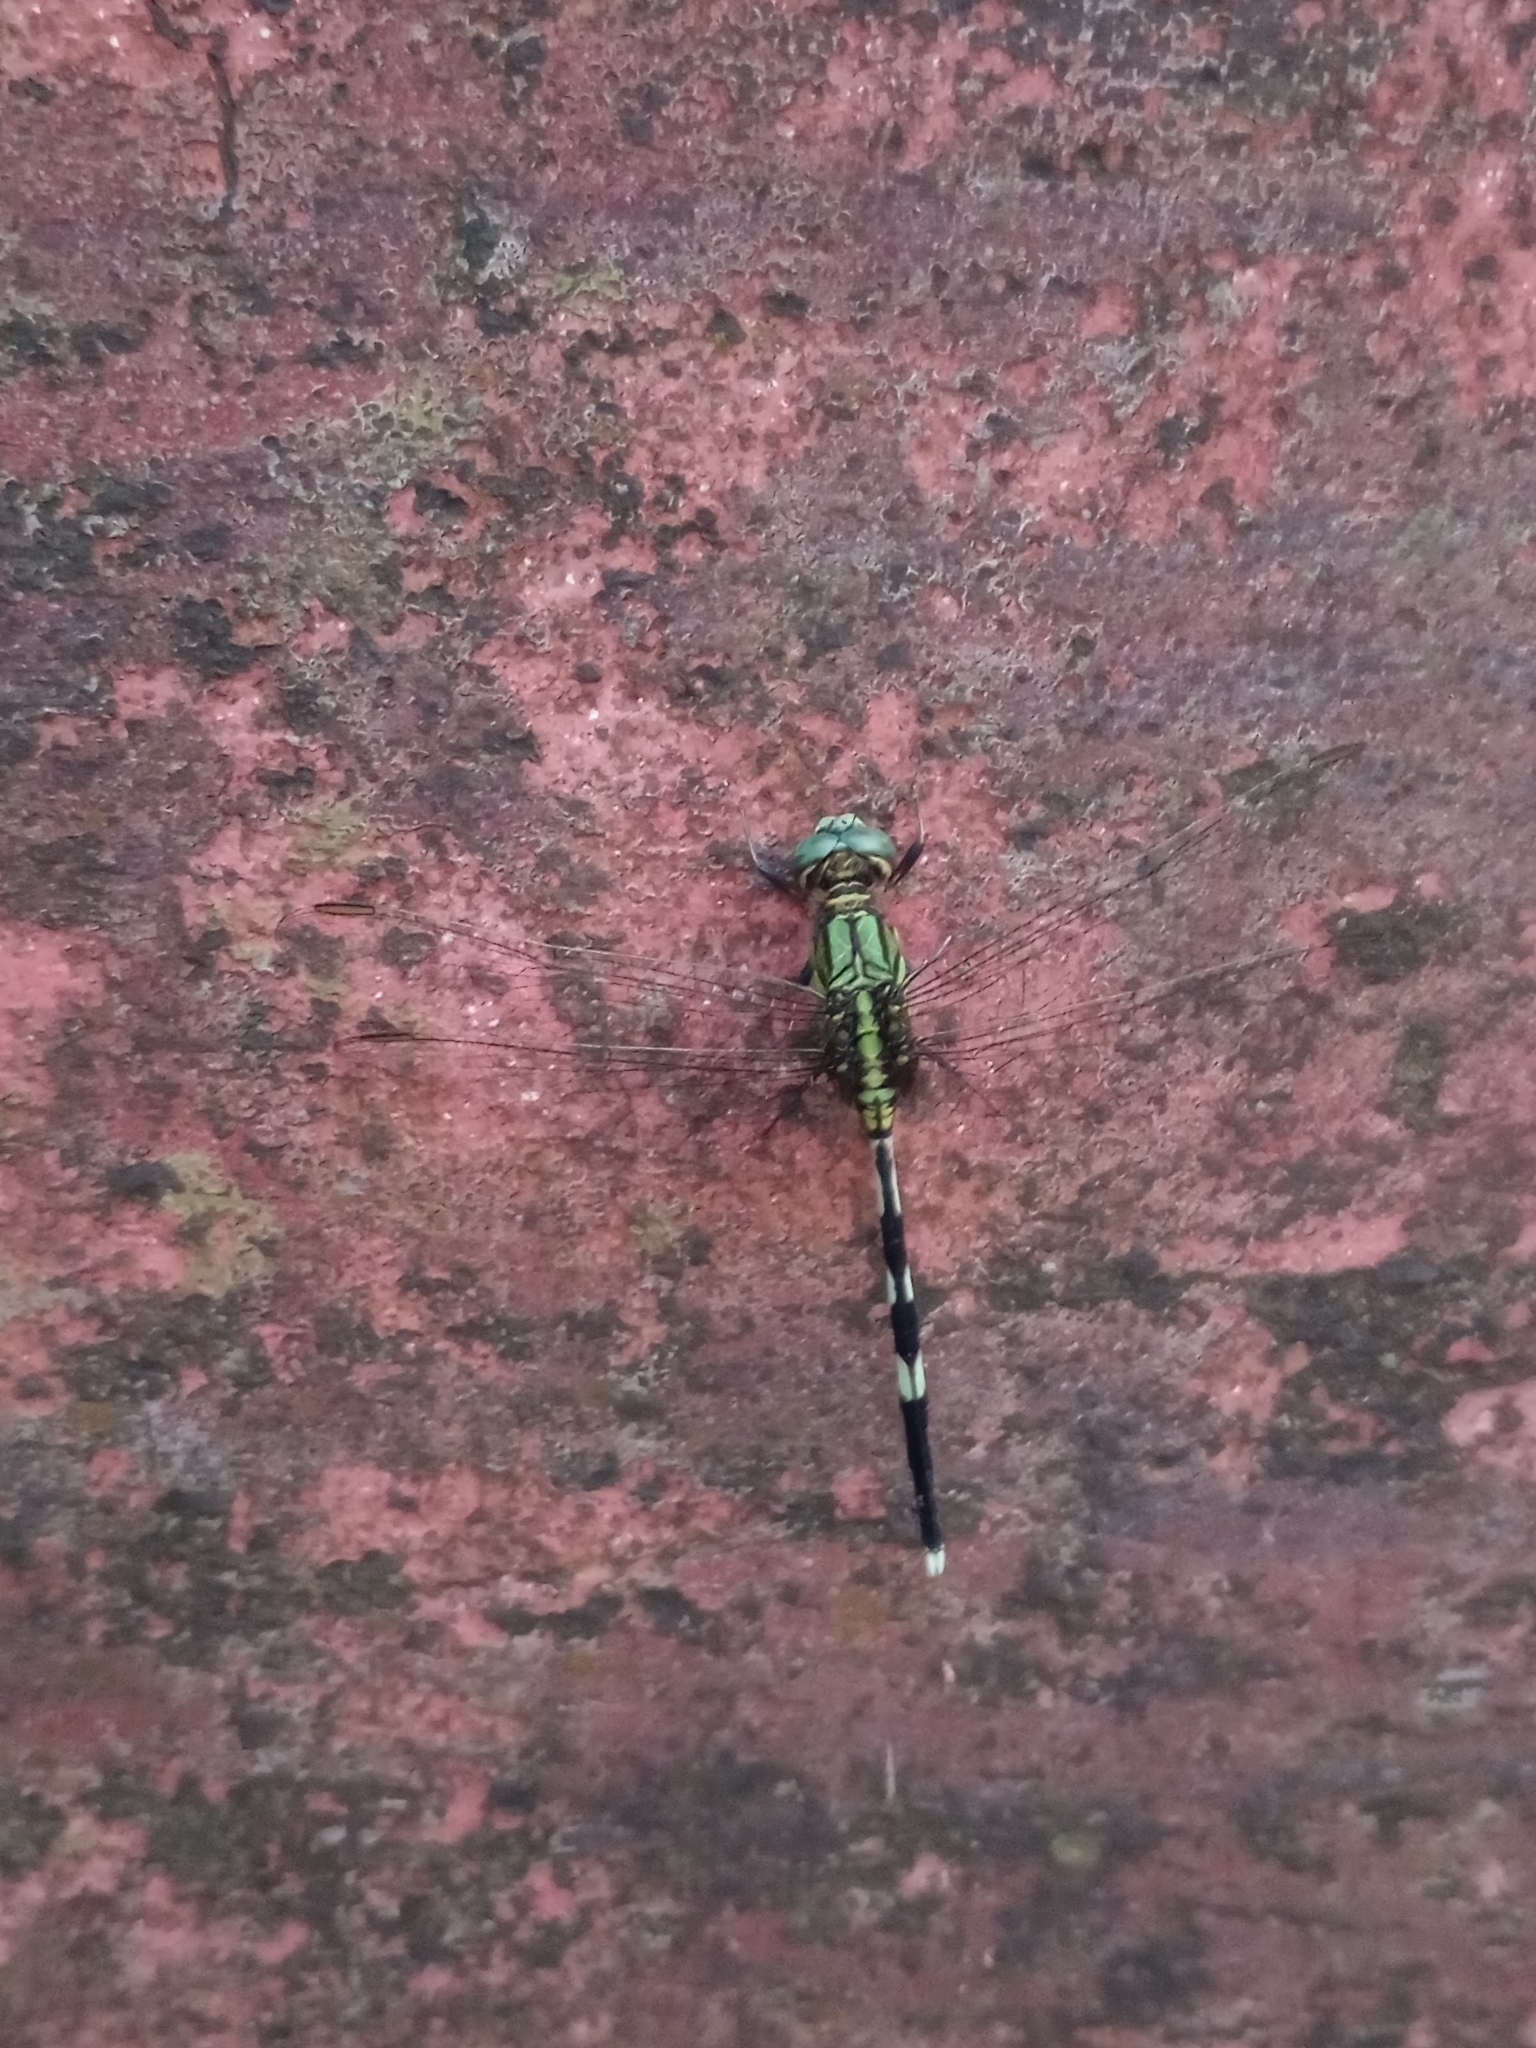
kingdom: Animalia
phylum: Arthropoda
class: Insecta
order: Odonata
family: Libellulidae
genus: Orthetrum
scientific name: Orthetrum sabina
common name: Slender skimmer
